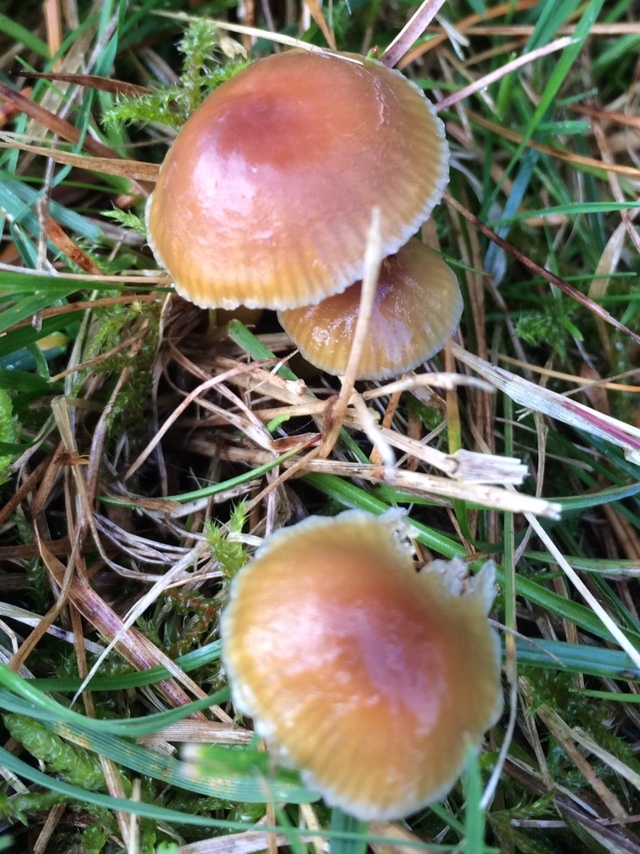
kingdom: Fungi
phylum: Basidiomycota
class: Agaricomycetes
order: Agaricales
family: Hygrophoraceae
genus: Gliophorus
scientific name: Gliophorus laetus
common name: Heath waxcap
